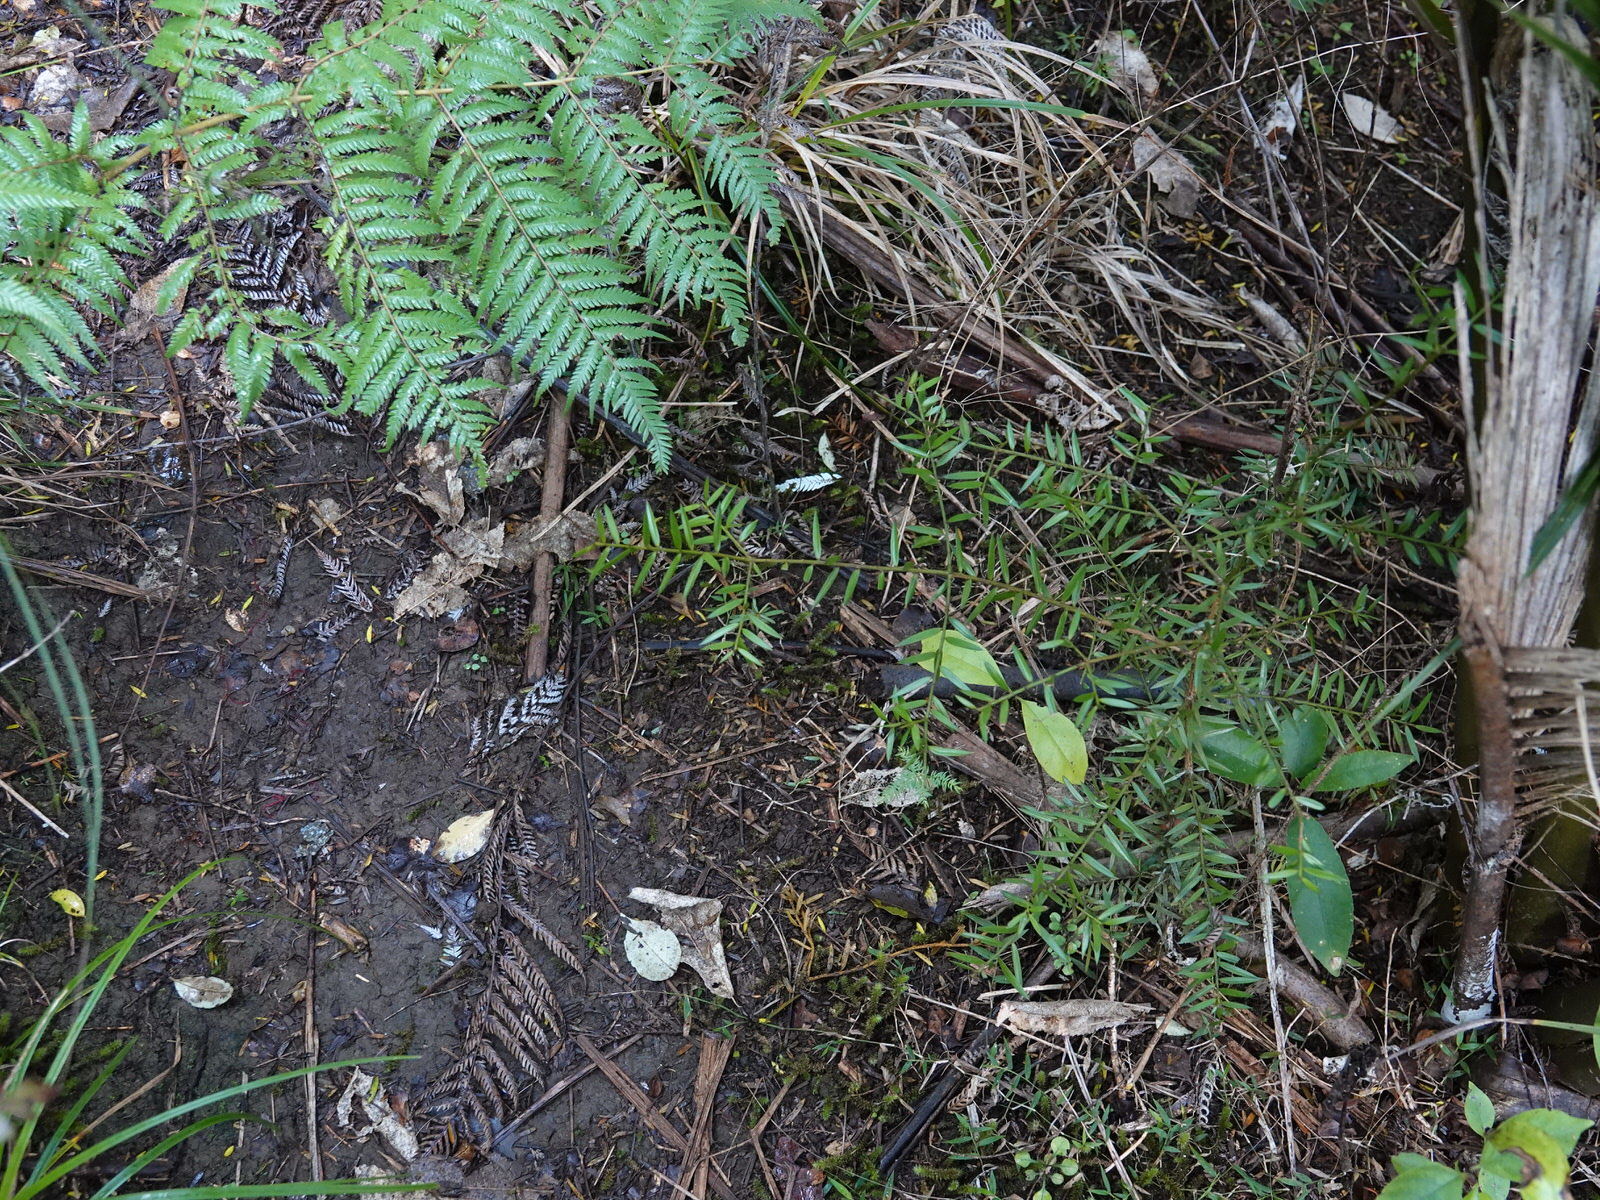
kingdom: Plantae
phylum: Tracheophyta
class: Pinopsida
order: Pinales
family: Podocarpaceae
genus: Podocarpus
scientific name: Podocarpus totara
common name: Totara
